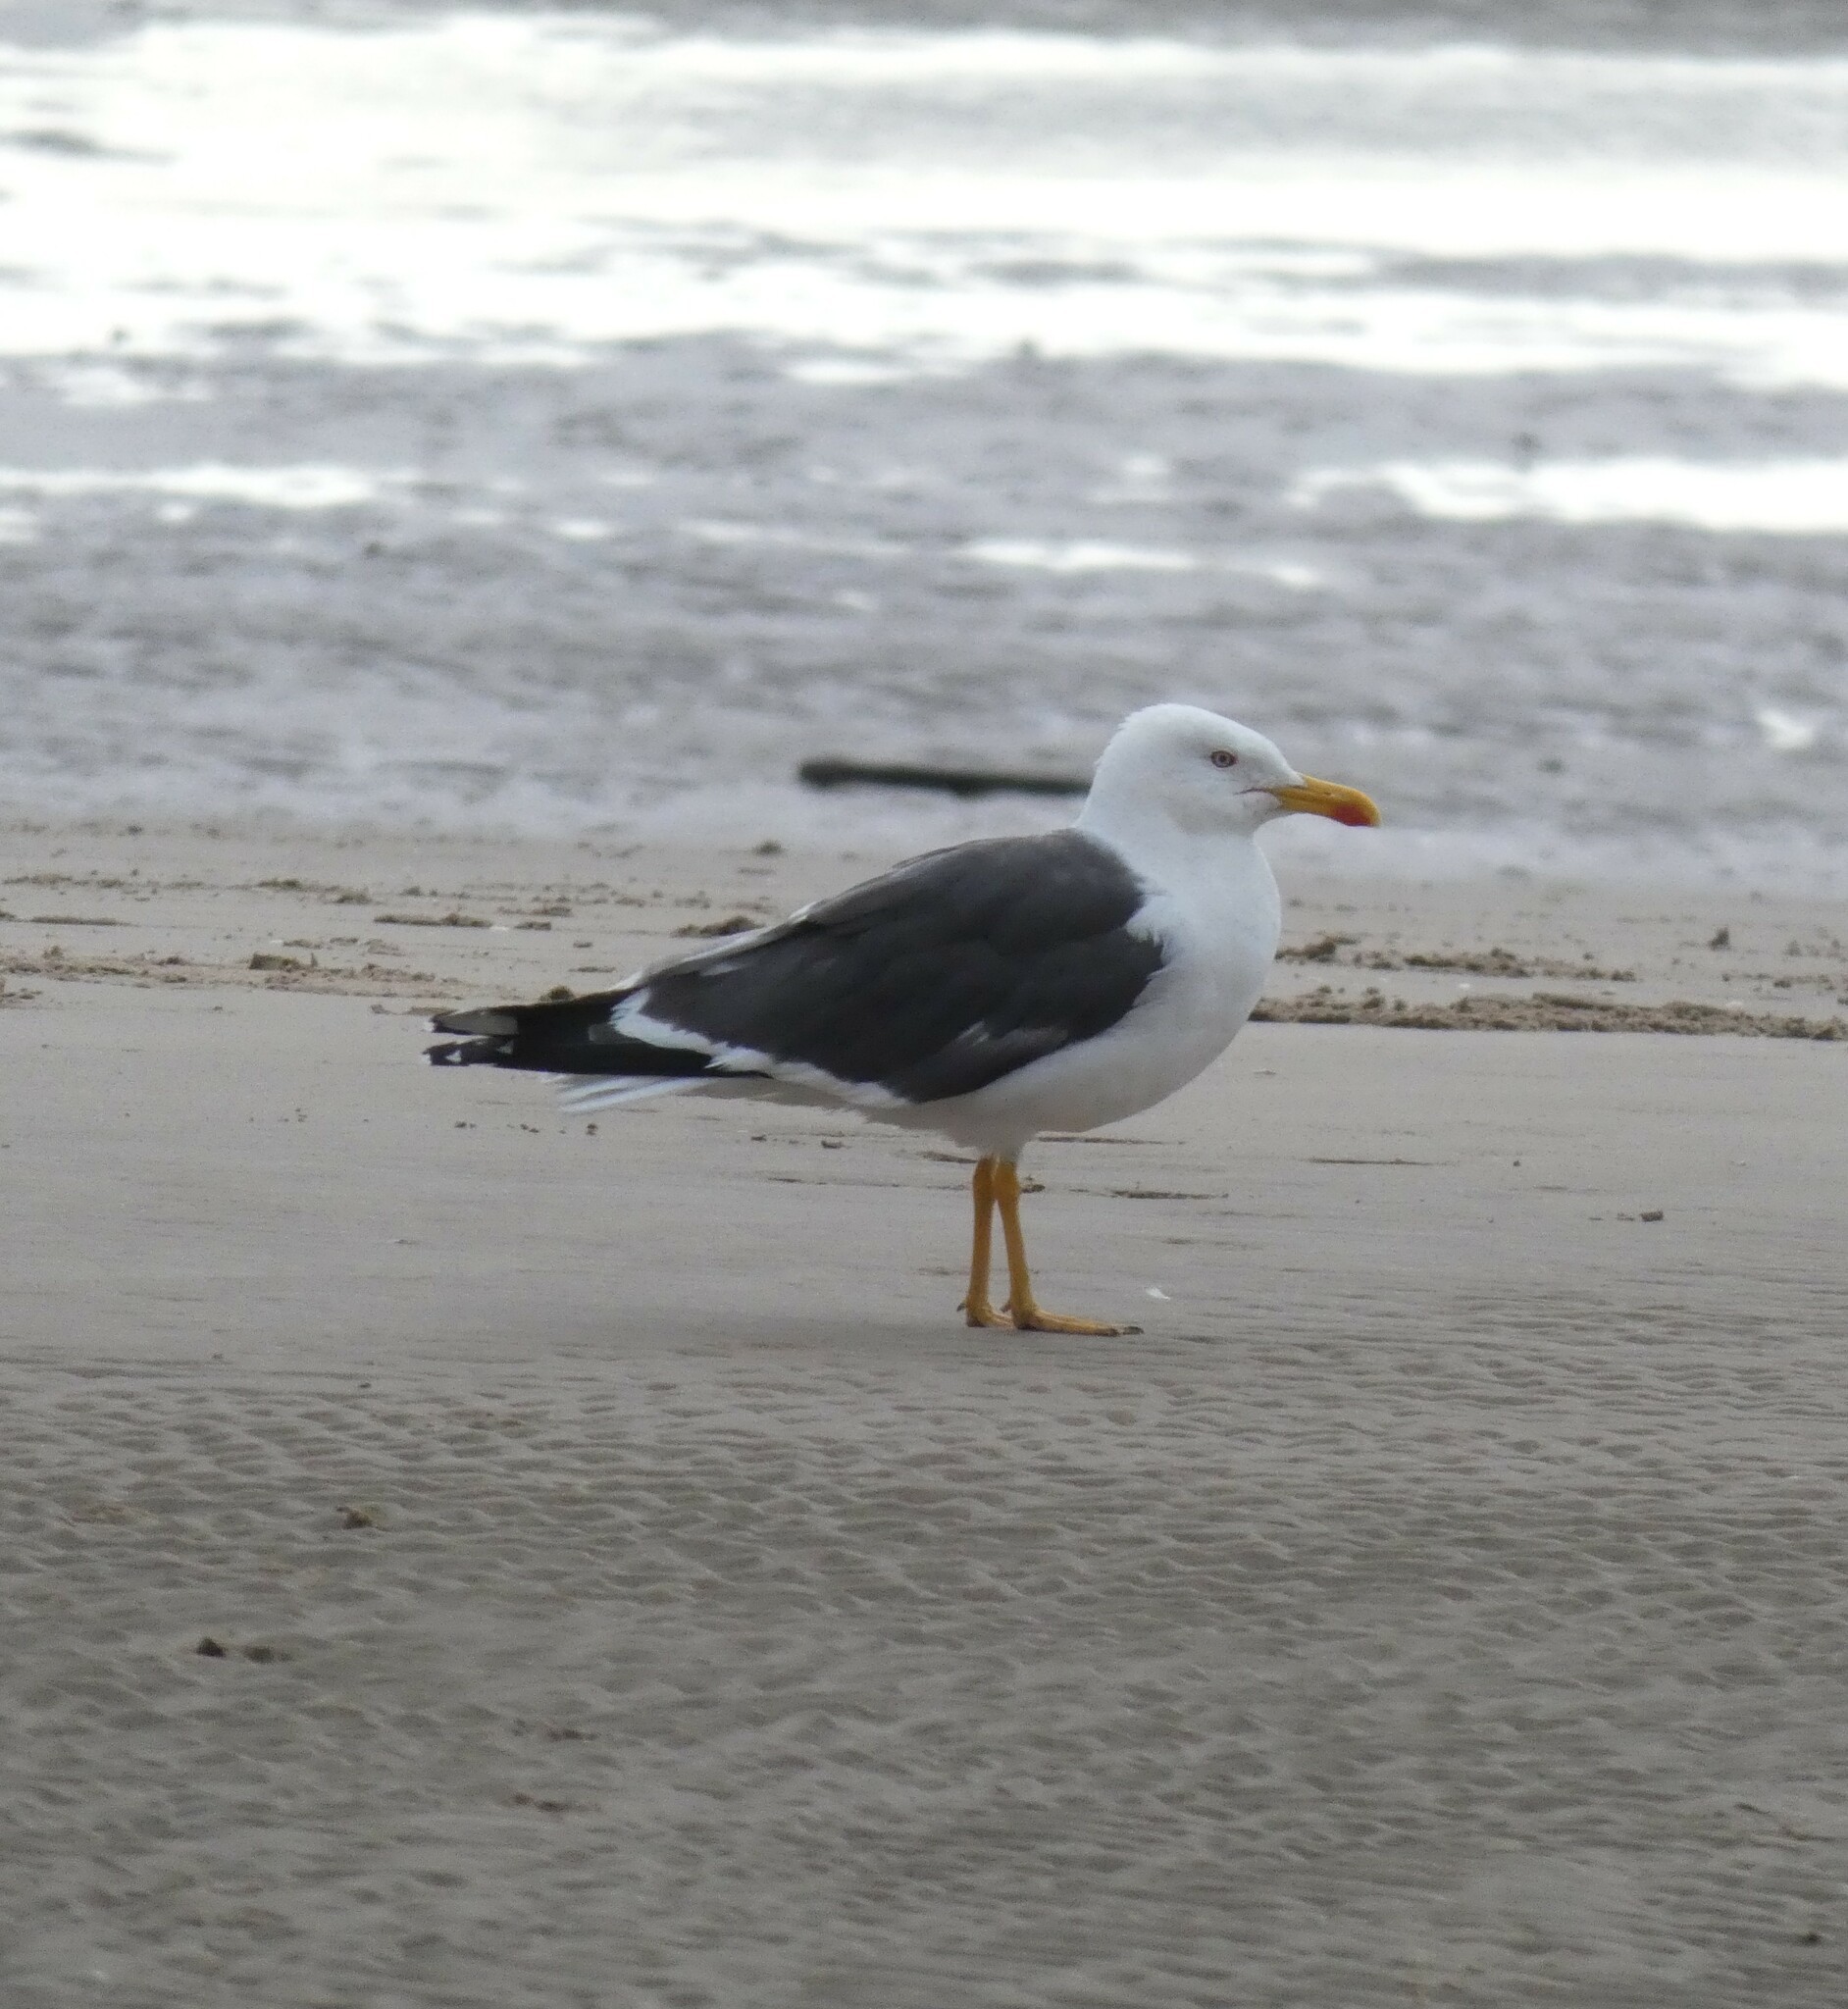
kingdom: Animalia
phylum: Chordata
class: Aves
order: Charadriiformes
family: Laridae
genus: Larus
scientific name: Larus fuscus
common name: Lesser black-backed gull
